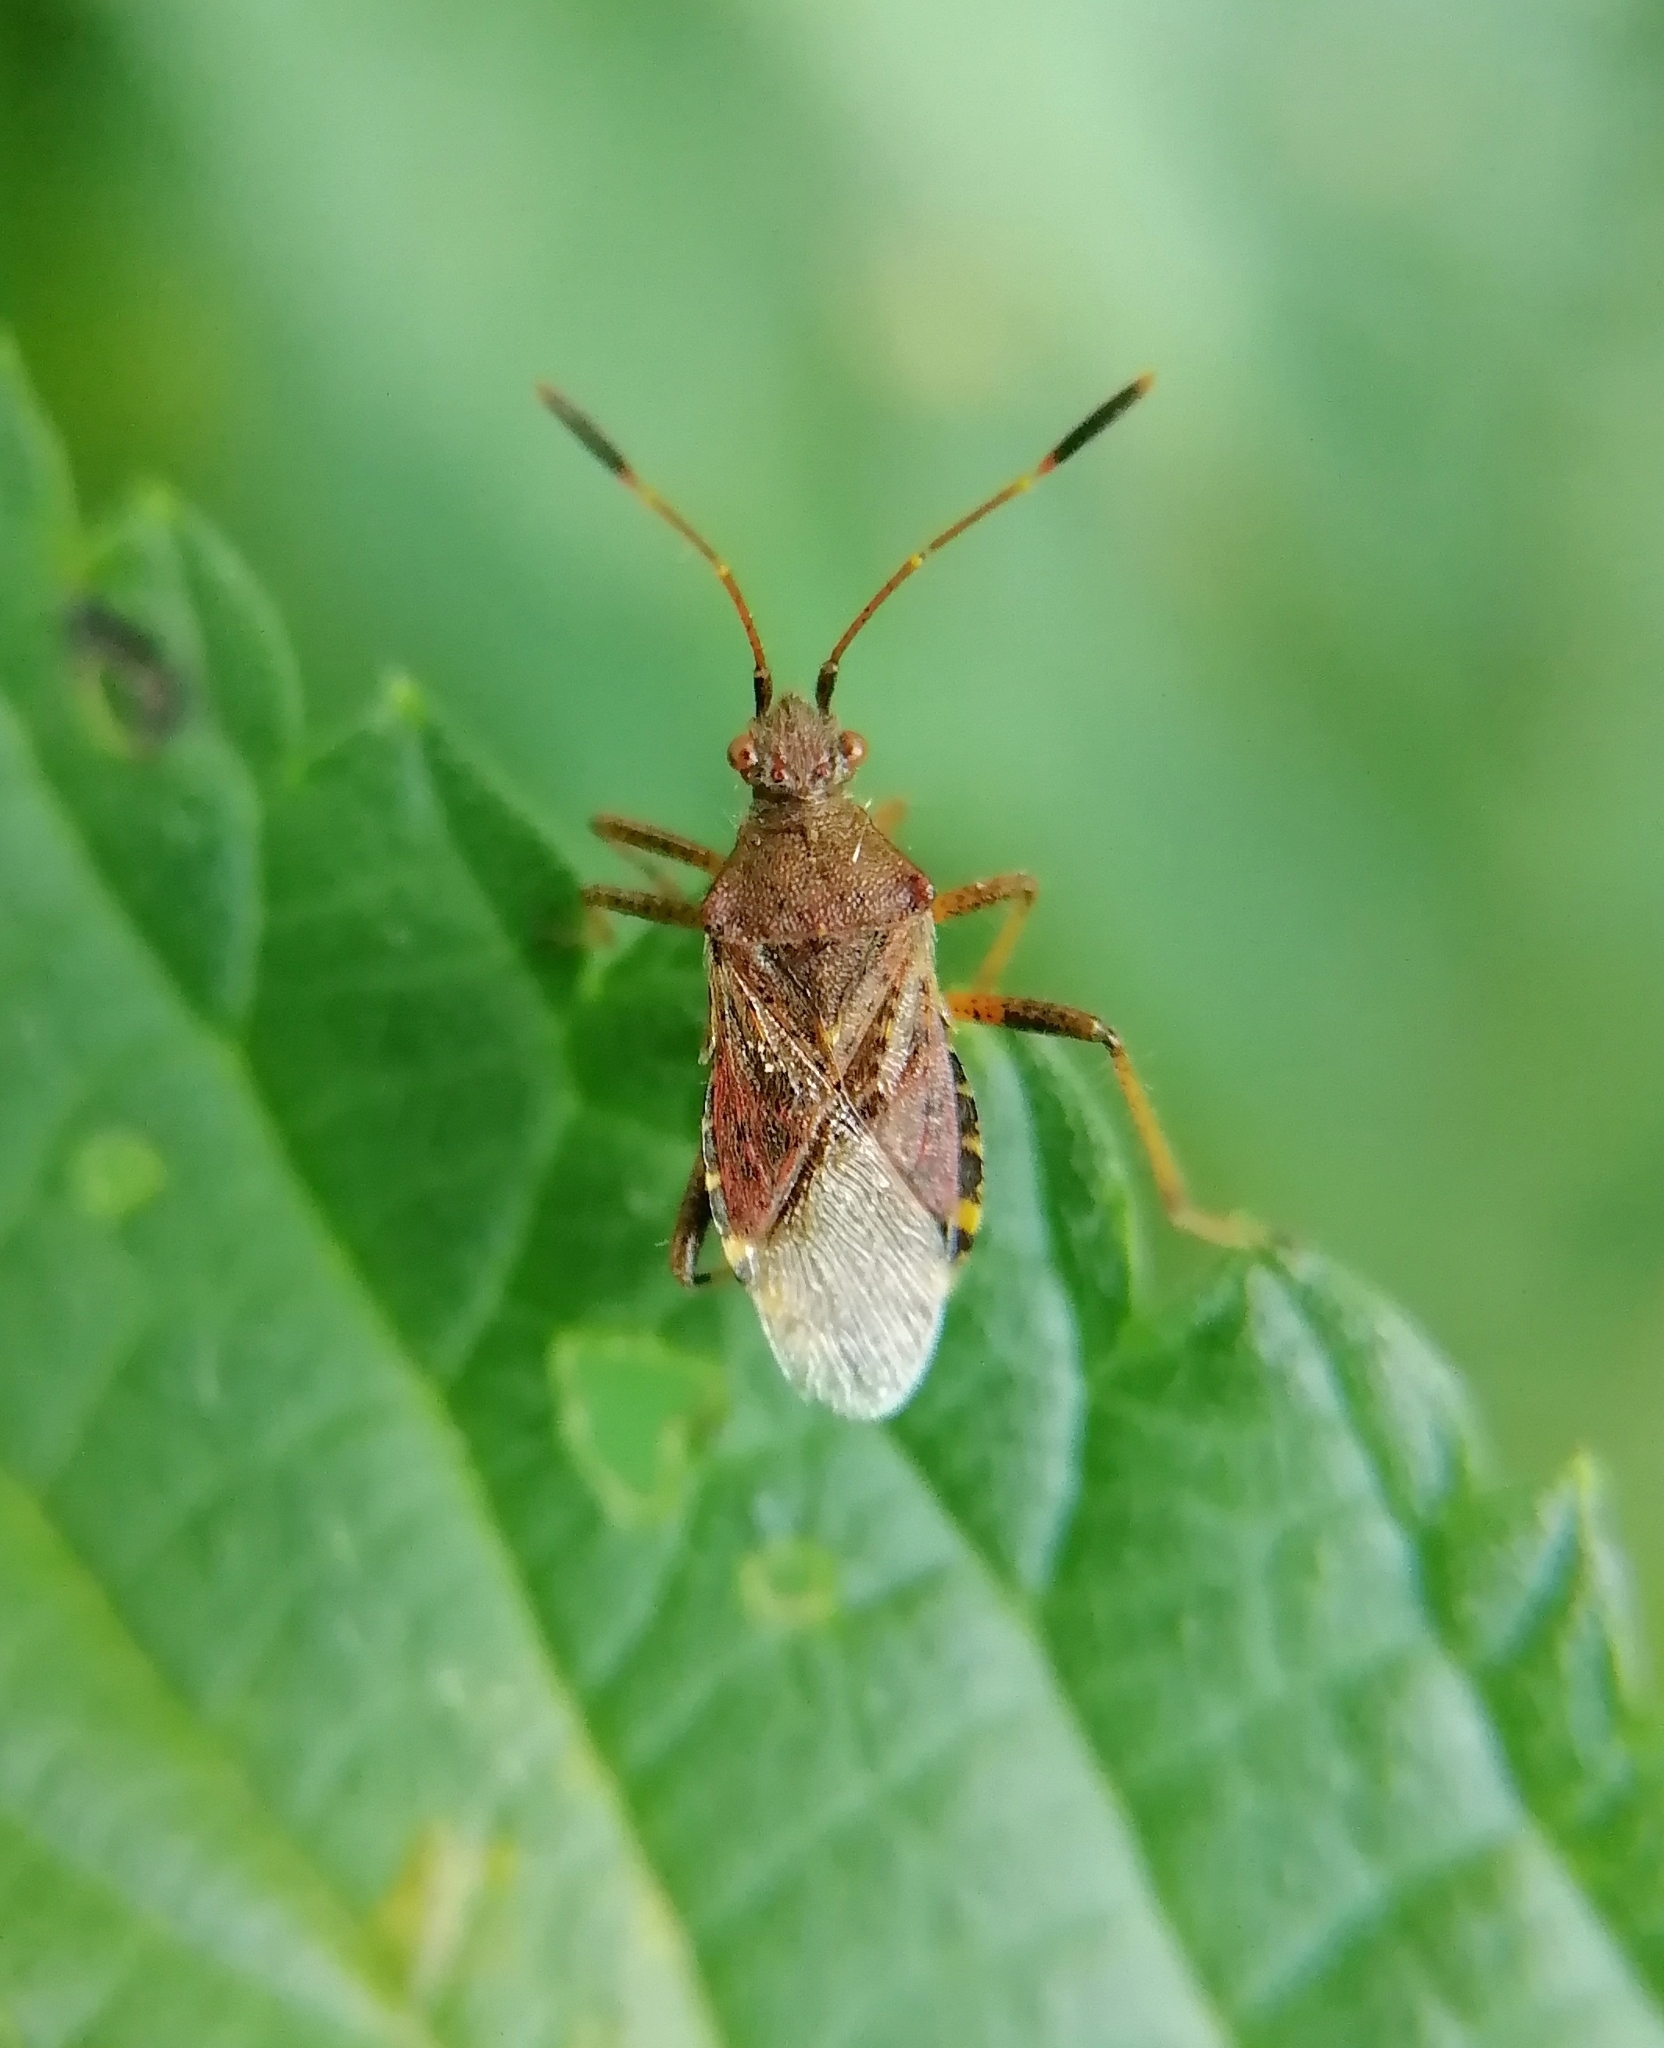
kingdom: Animalia
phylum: Arthropoda
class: Insecta
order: Hemiptera
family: Rhopalidae
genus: Rhopalus
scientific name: Rhopalus latus
